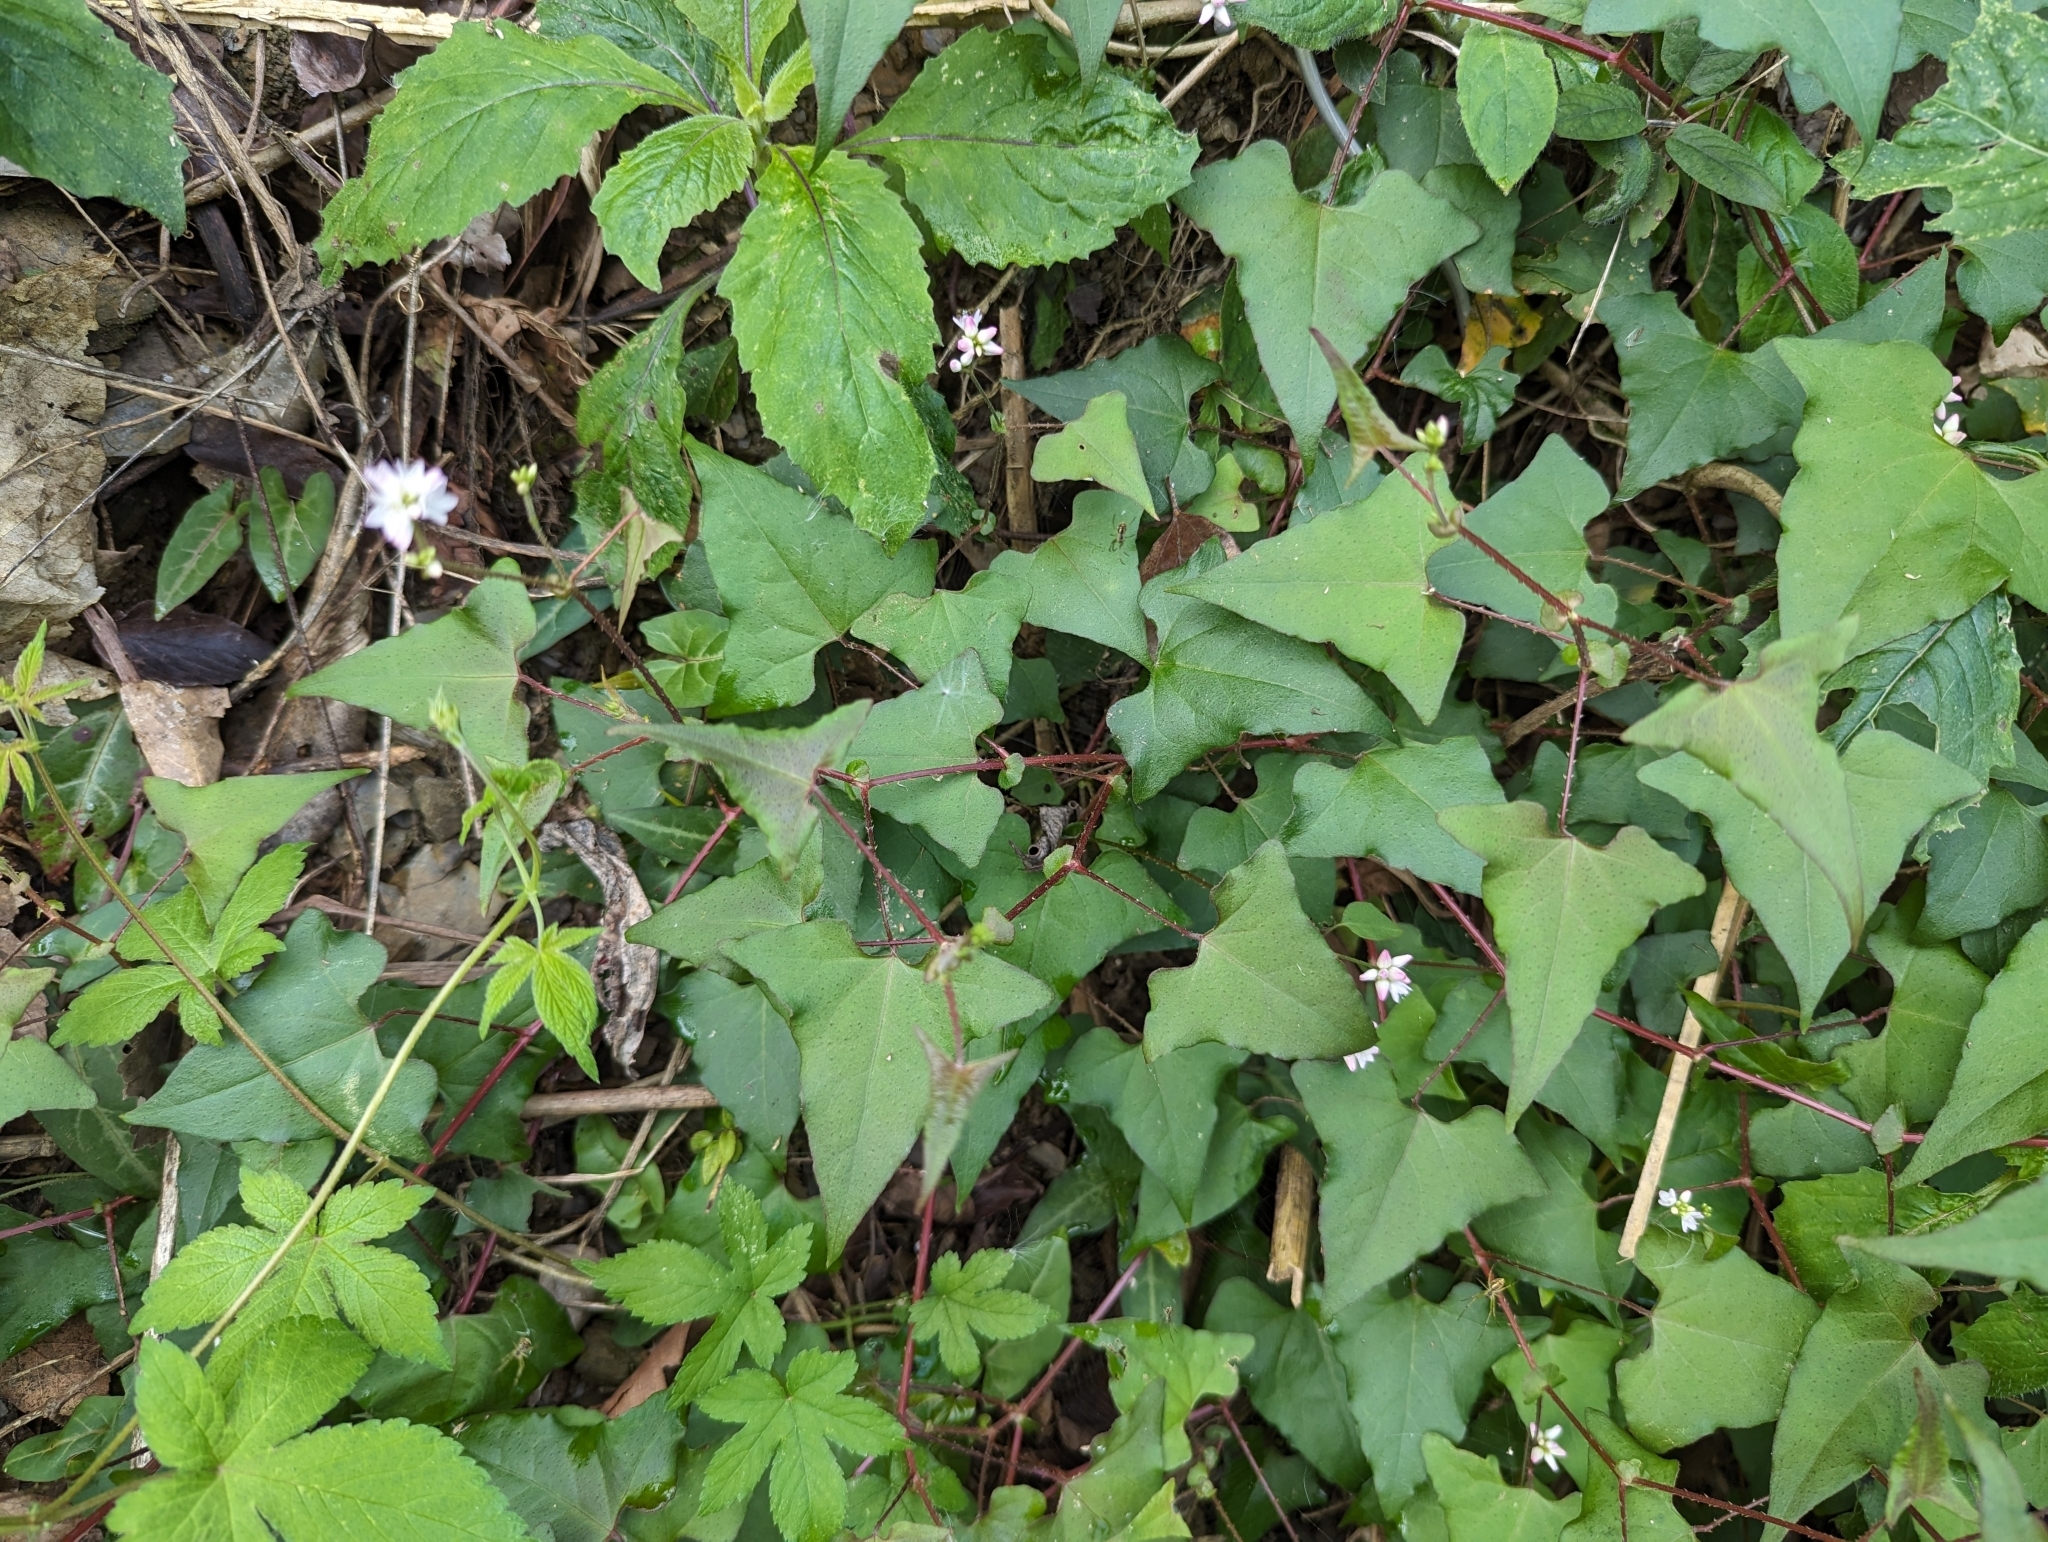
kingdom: Plantae
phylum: Tracheophyta
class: Magnoliopsida
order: Caryophyllales
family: Polygonaceae
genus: Persicaria
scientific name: Persicaria senticosa
